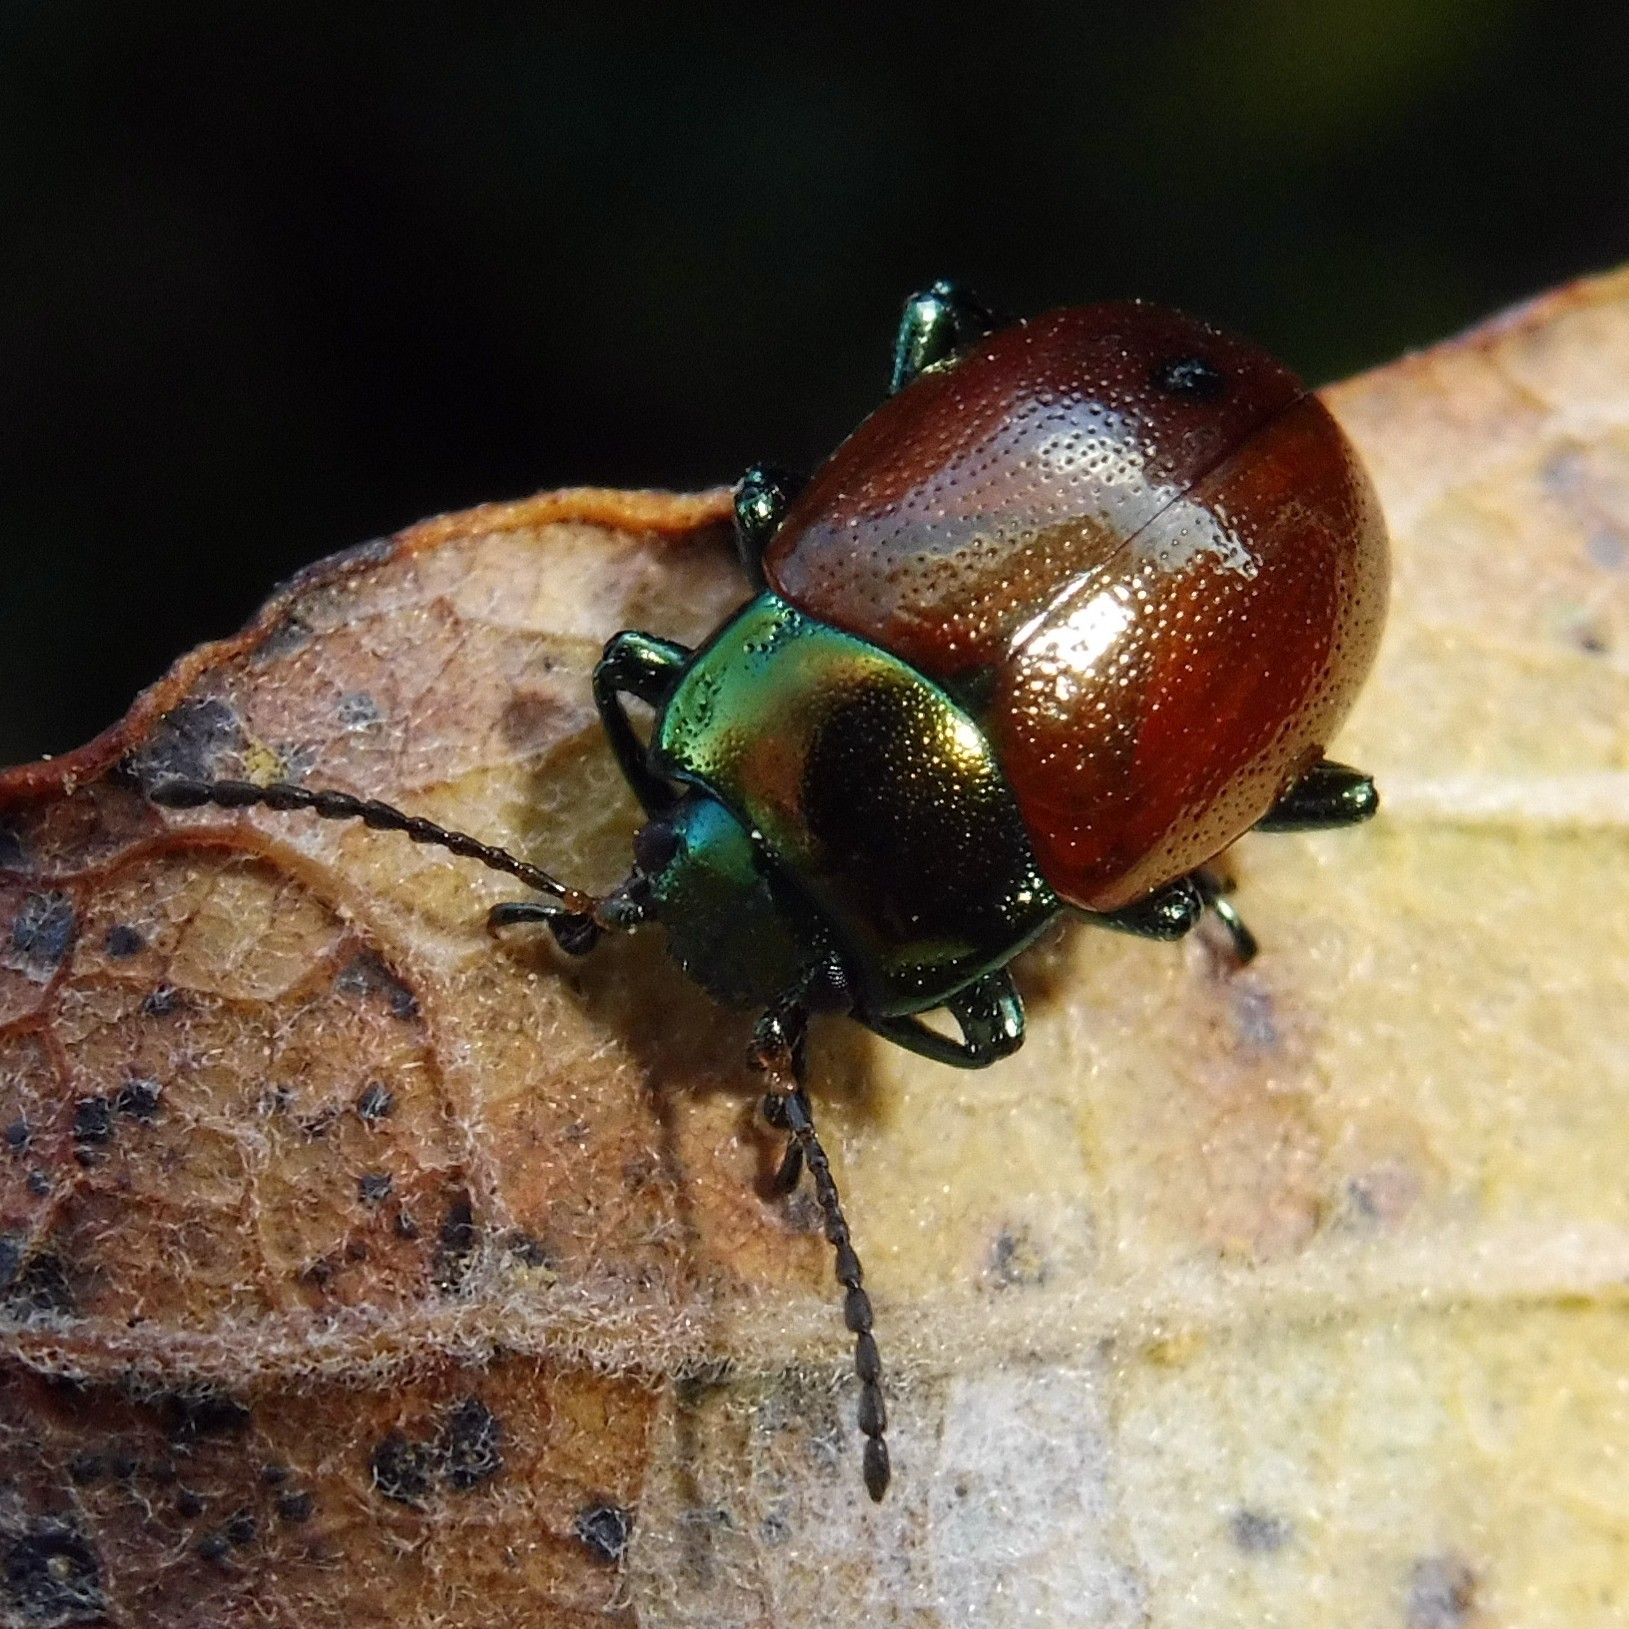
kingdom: Animalia
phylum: Arthropoda
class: Insecta
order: Coleoptera
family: Chrysomelidae
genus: Chrysomela
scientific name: Chrysomela polita
